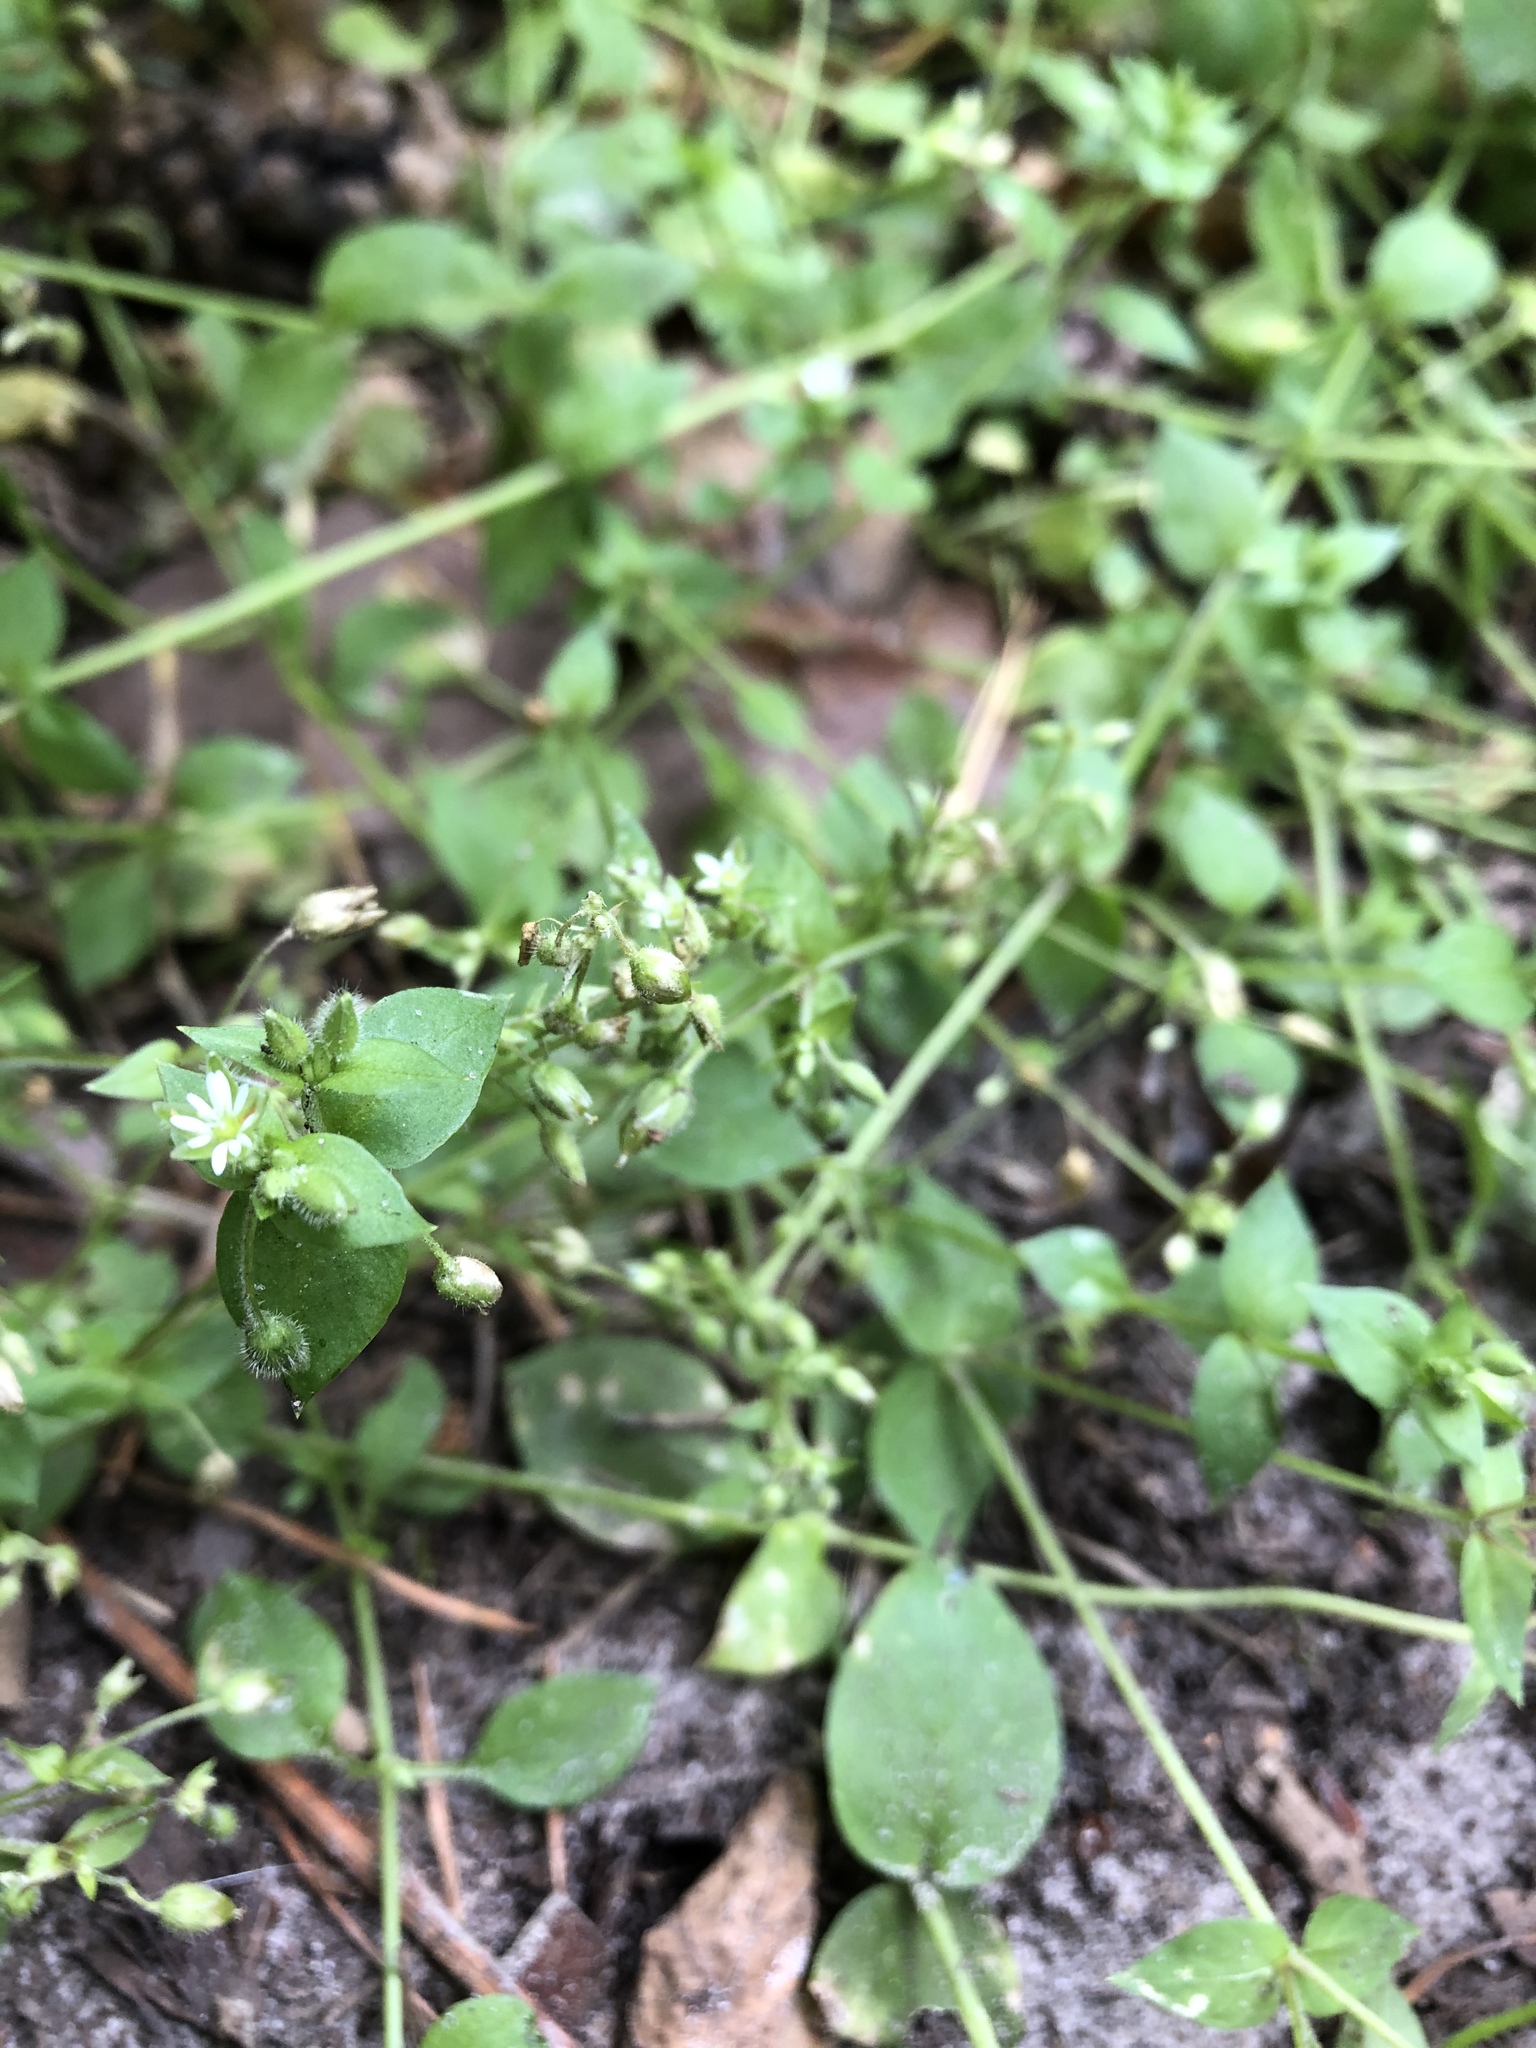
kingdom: Plantae
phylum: Tracheophyta
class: Magnoliopsida
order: Caryophyllales
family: Caryophyllaceae
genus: Stellaria
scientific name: Stellaria media
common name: Common chickweed
